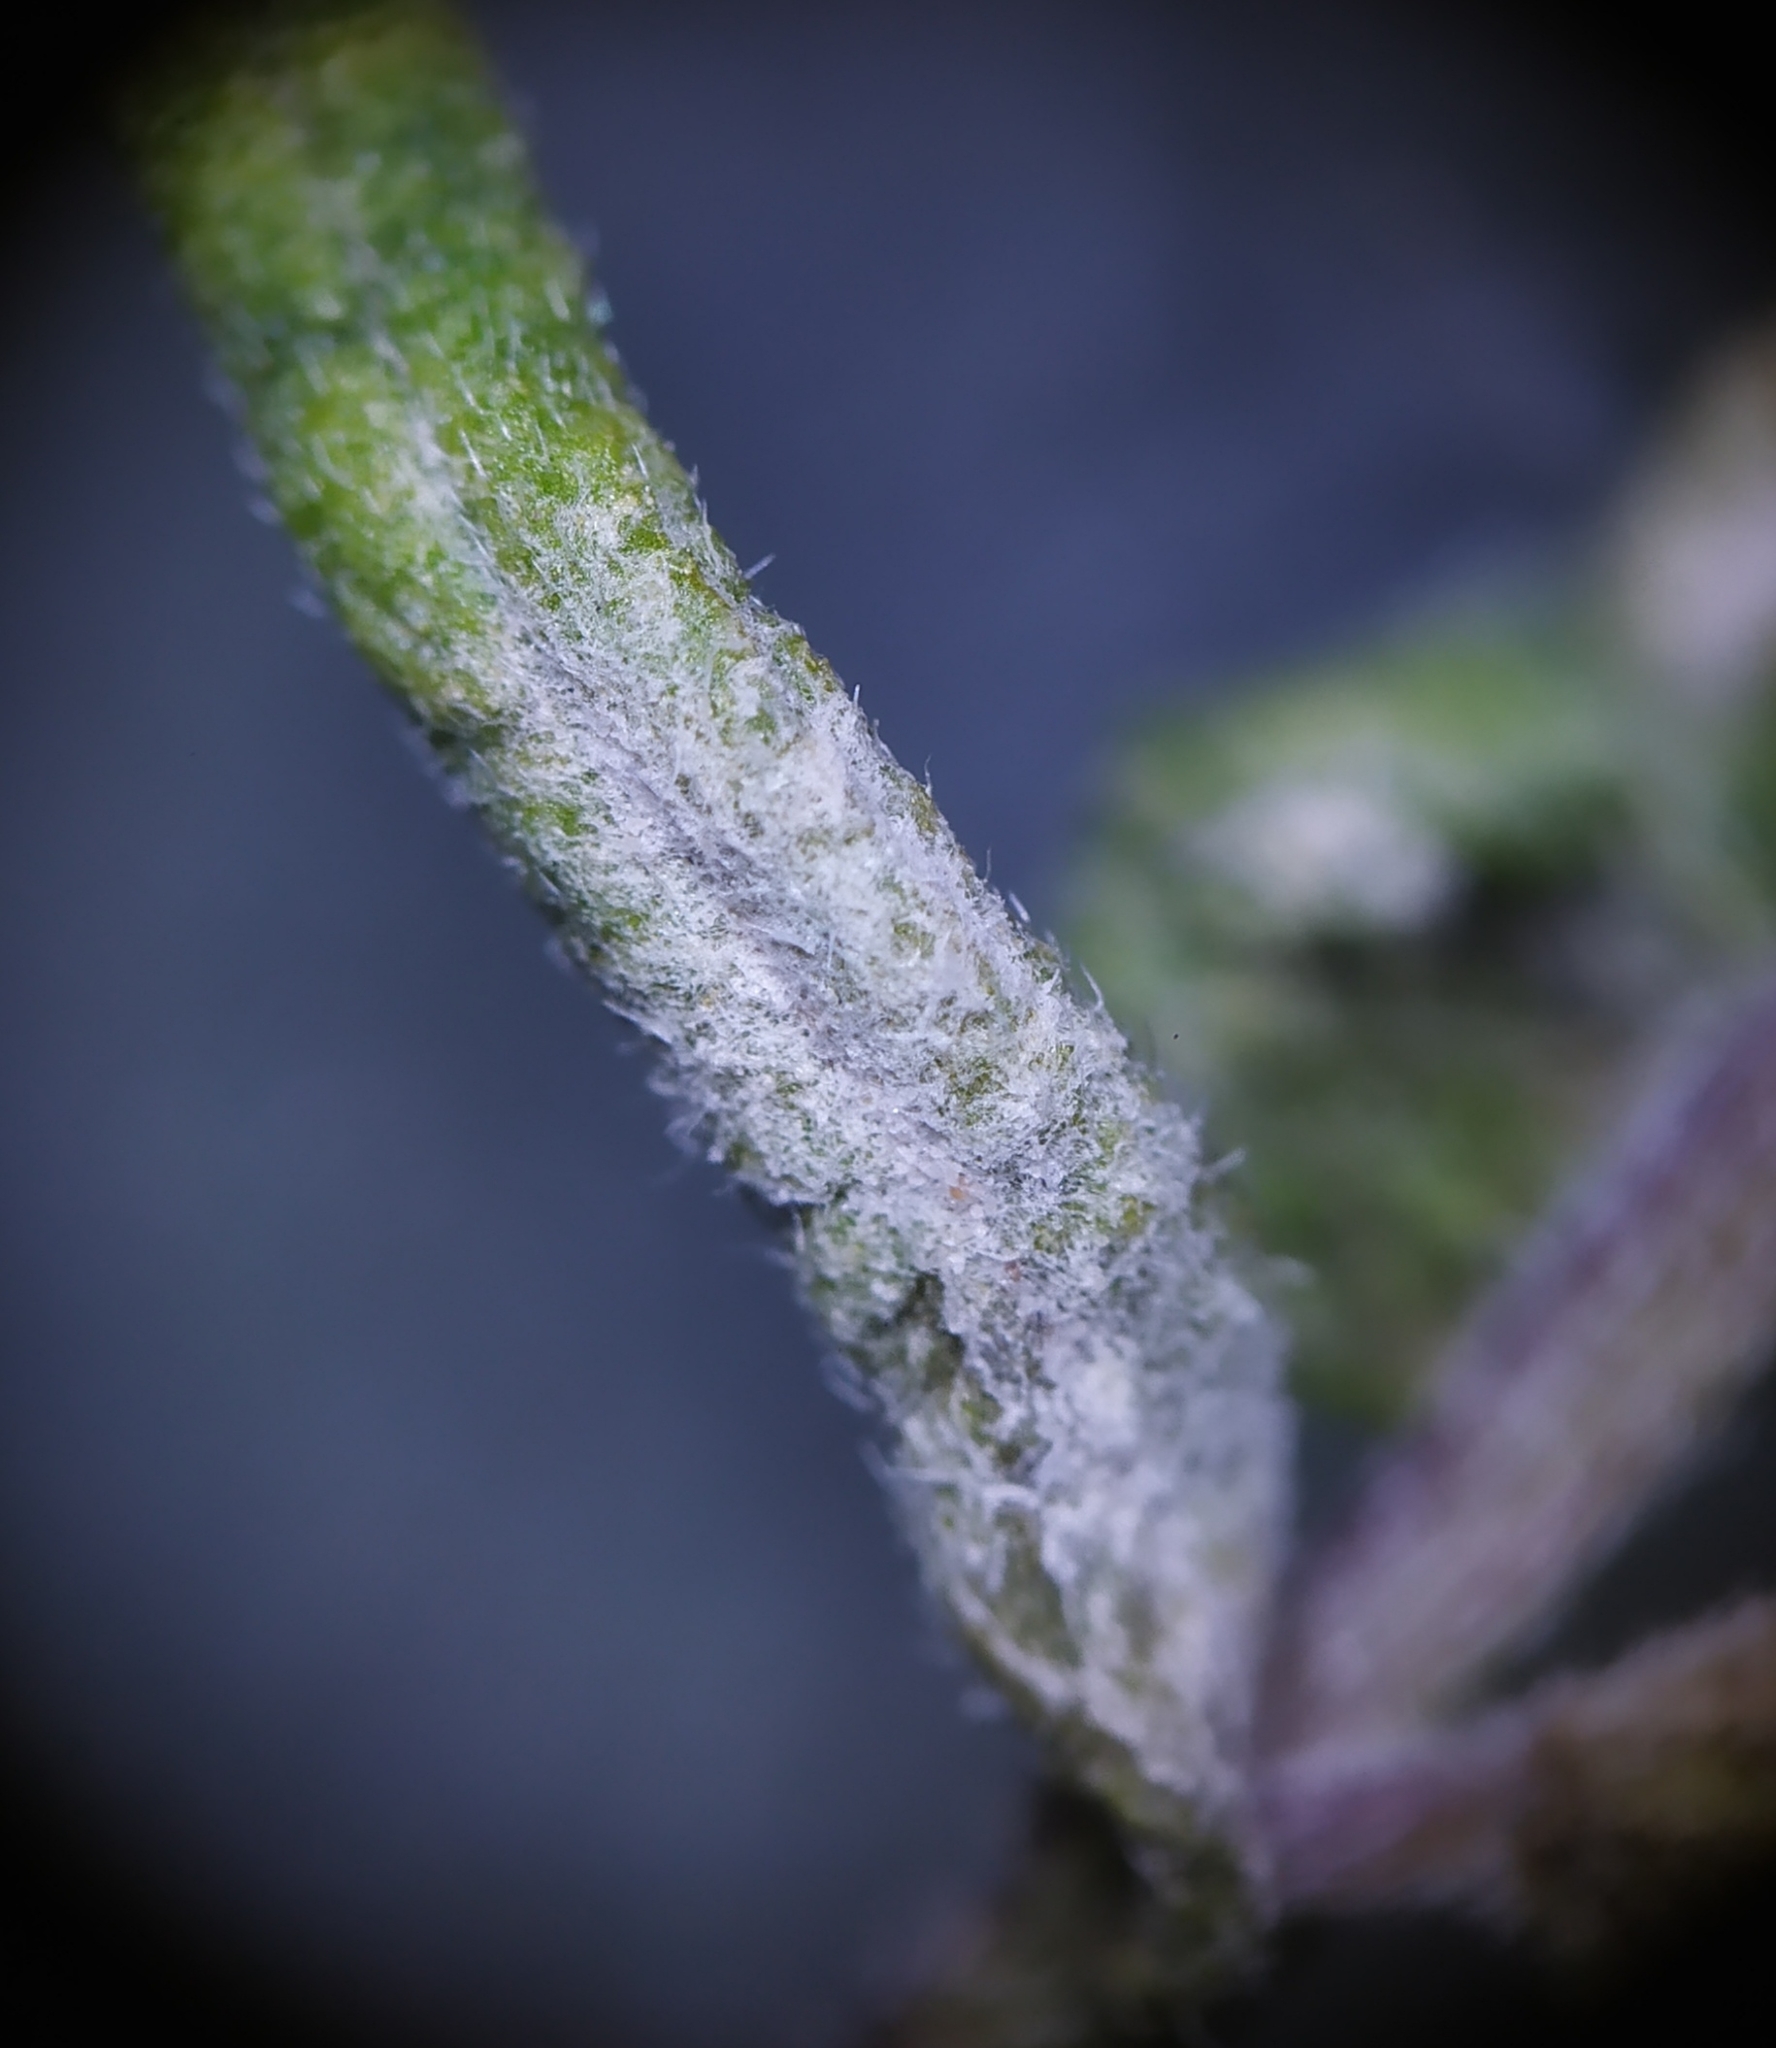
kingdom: Fungi
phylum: Ascomycota
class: Leotiomycetes
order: Helotiales
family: Erysiphaceae
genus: Podosphaera
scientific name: Podosphaera phtheirospermi
